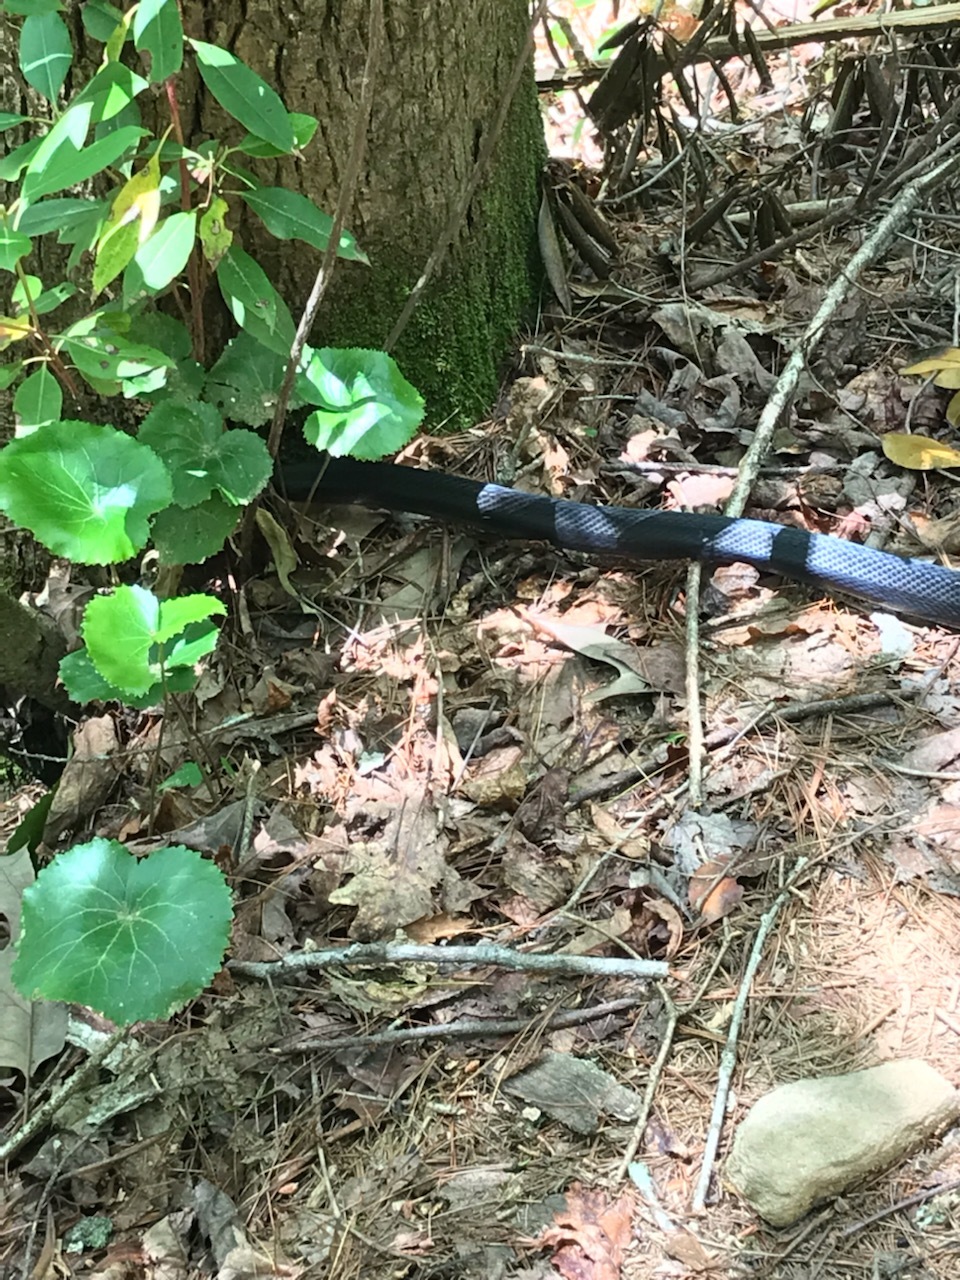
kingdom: Animalia
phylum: Chordata
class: Squamata
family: Colubridae
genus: Pantherophis
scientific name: Pantherophis alleghaniensis
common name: Eastern rat snake
